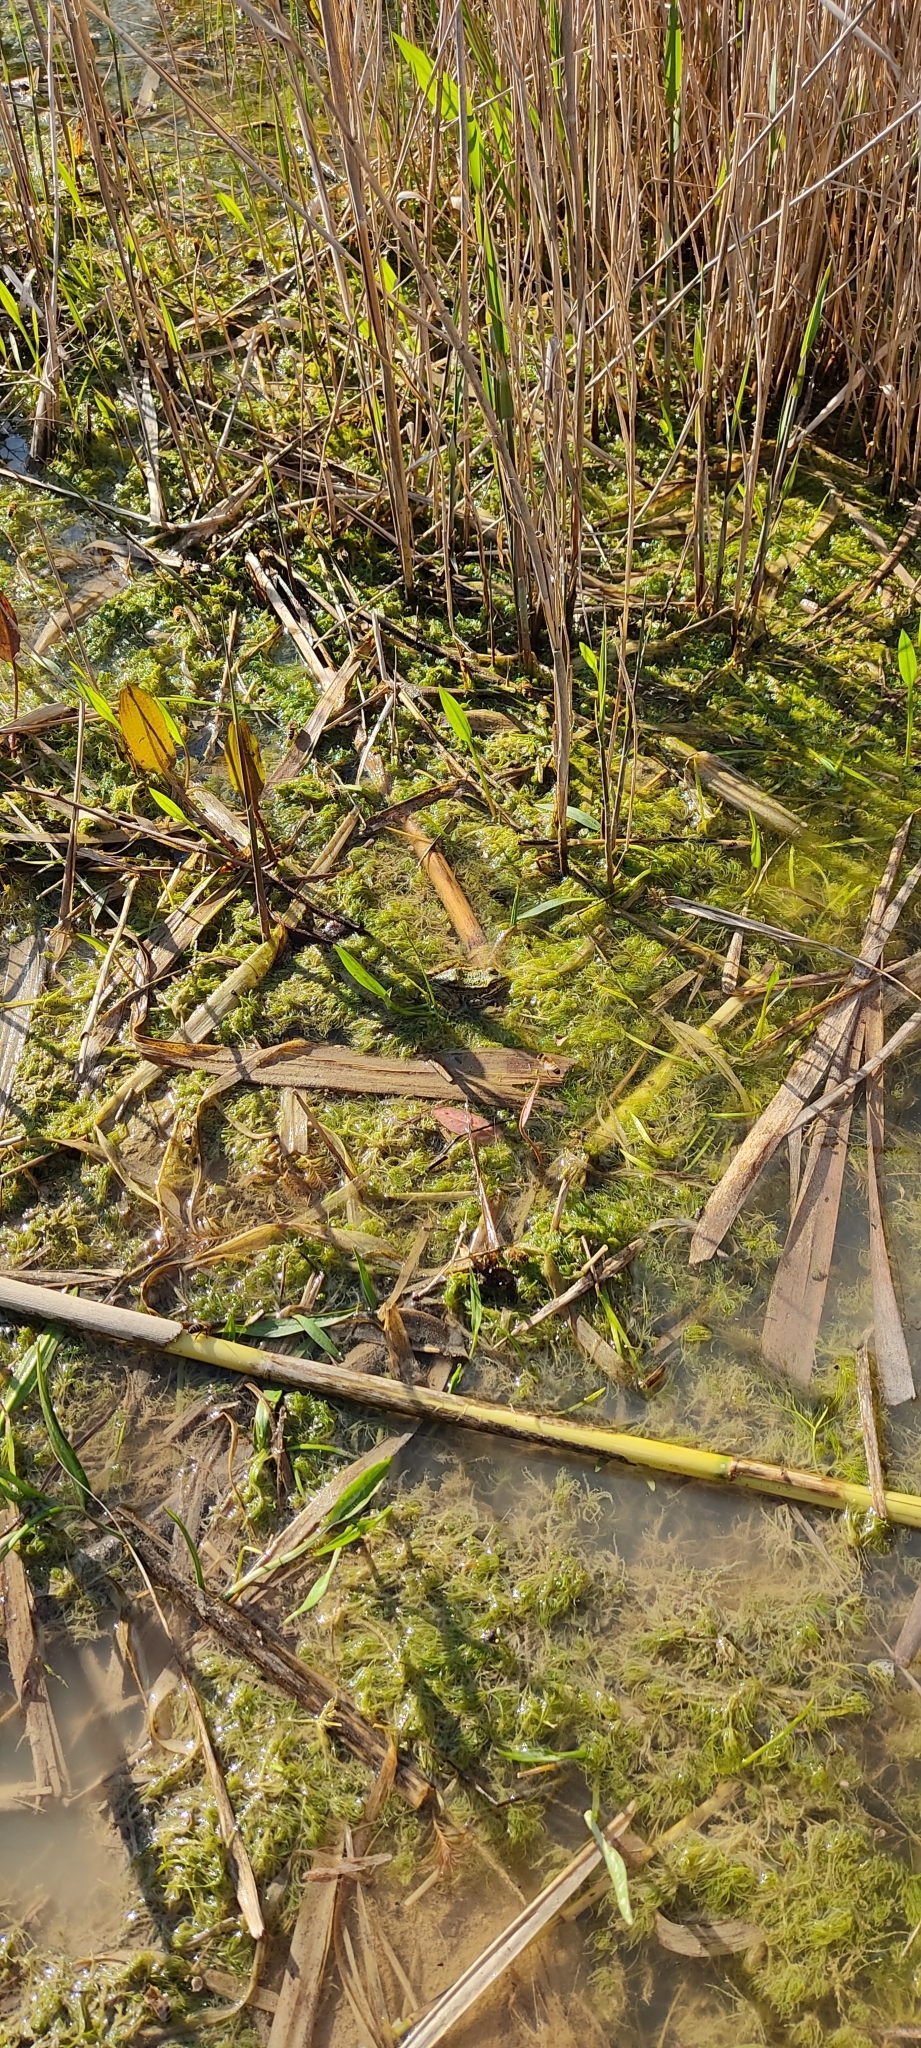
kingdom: Animalia
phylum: Chordata
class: Amphibia
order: Anura
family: Ranidae
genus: Pelophylax
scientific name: Pelophylax perezi
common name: Perez's frog
